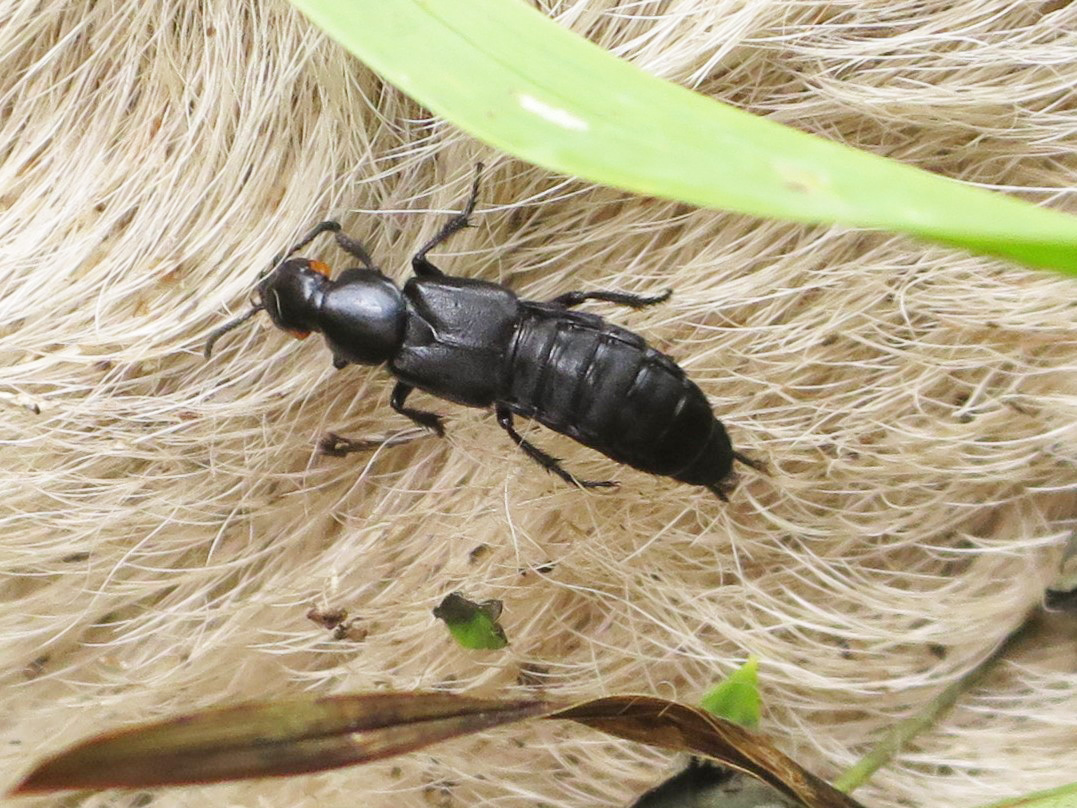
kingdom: Animalia
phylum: Arthropoda
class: Insecta
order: Coleoptera
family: Staphylinidae
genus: Creophilus
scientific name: Creophilus oculatus
